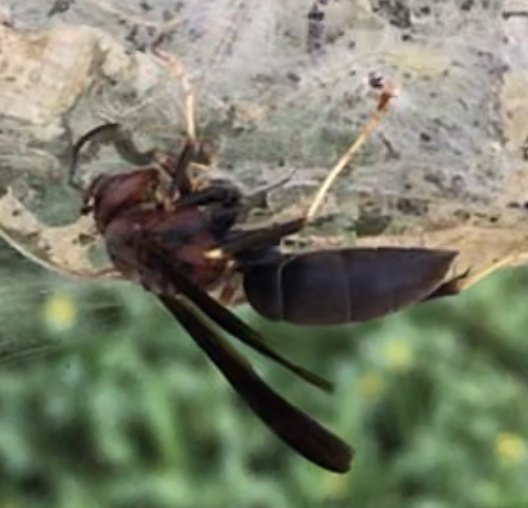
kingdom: Animalia
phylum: Arthropoda
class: Insecta
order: Hymenoptera
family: Eumenidae
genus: Polistes
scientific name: Polistes metricus
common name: Metric paper wasp
